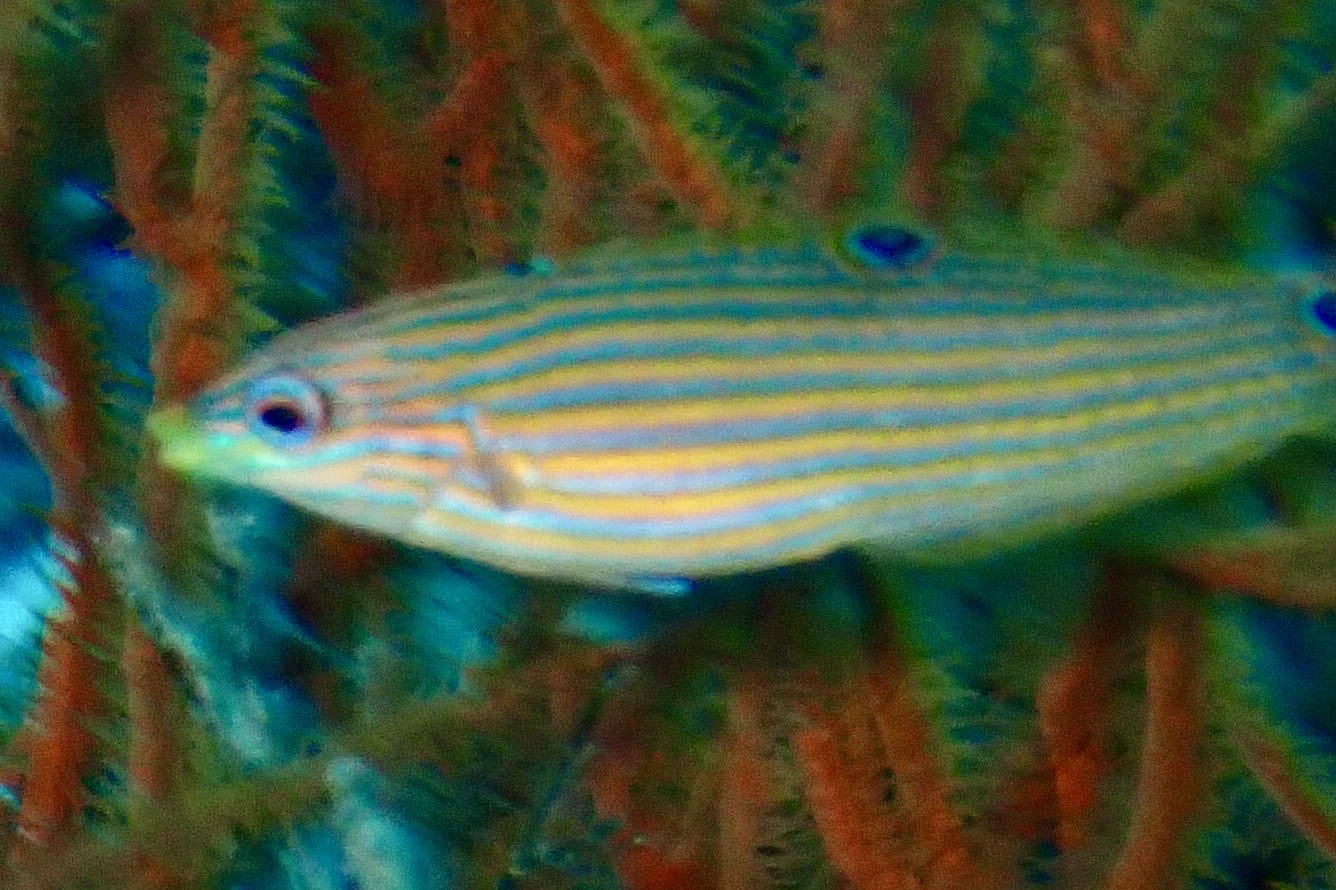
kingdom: Animalia
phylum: Chordata
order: Perciformes
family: Labridae
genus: Halichoeres
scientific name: Halichoeres melanurus
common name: Hoeven's wrasse
